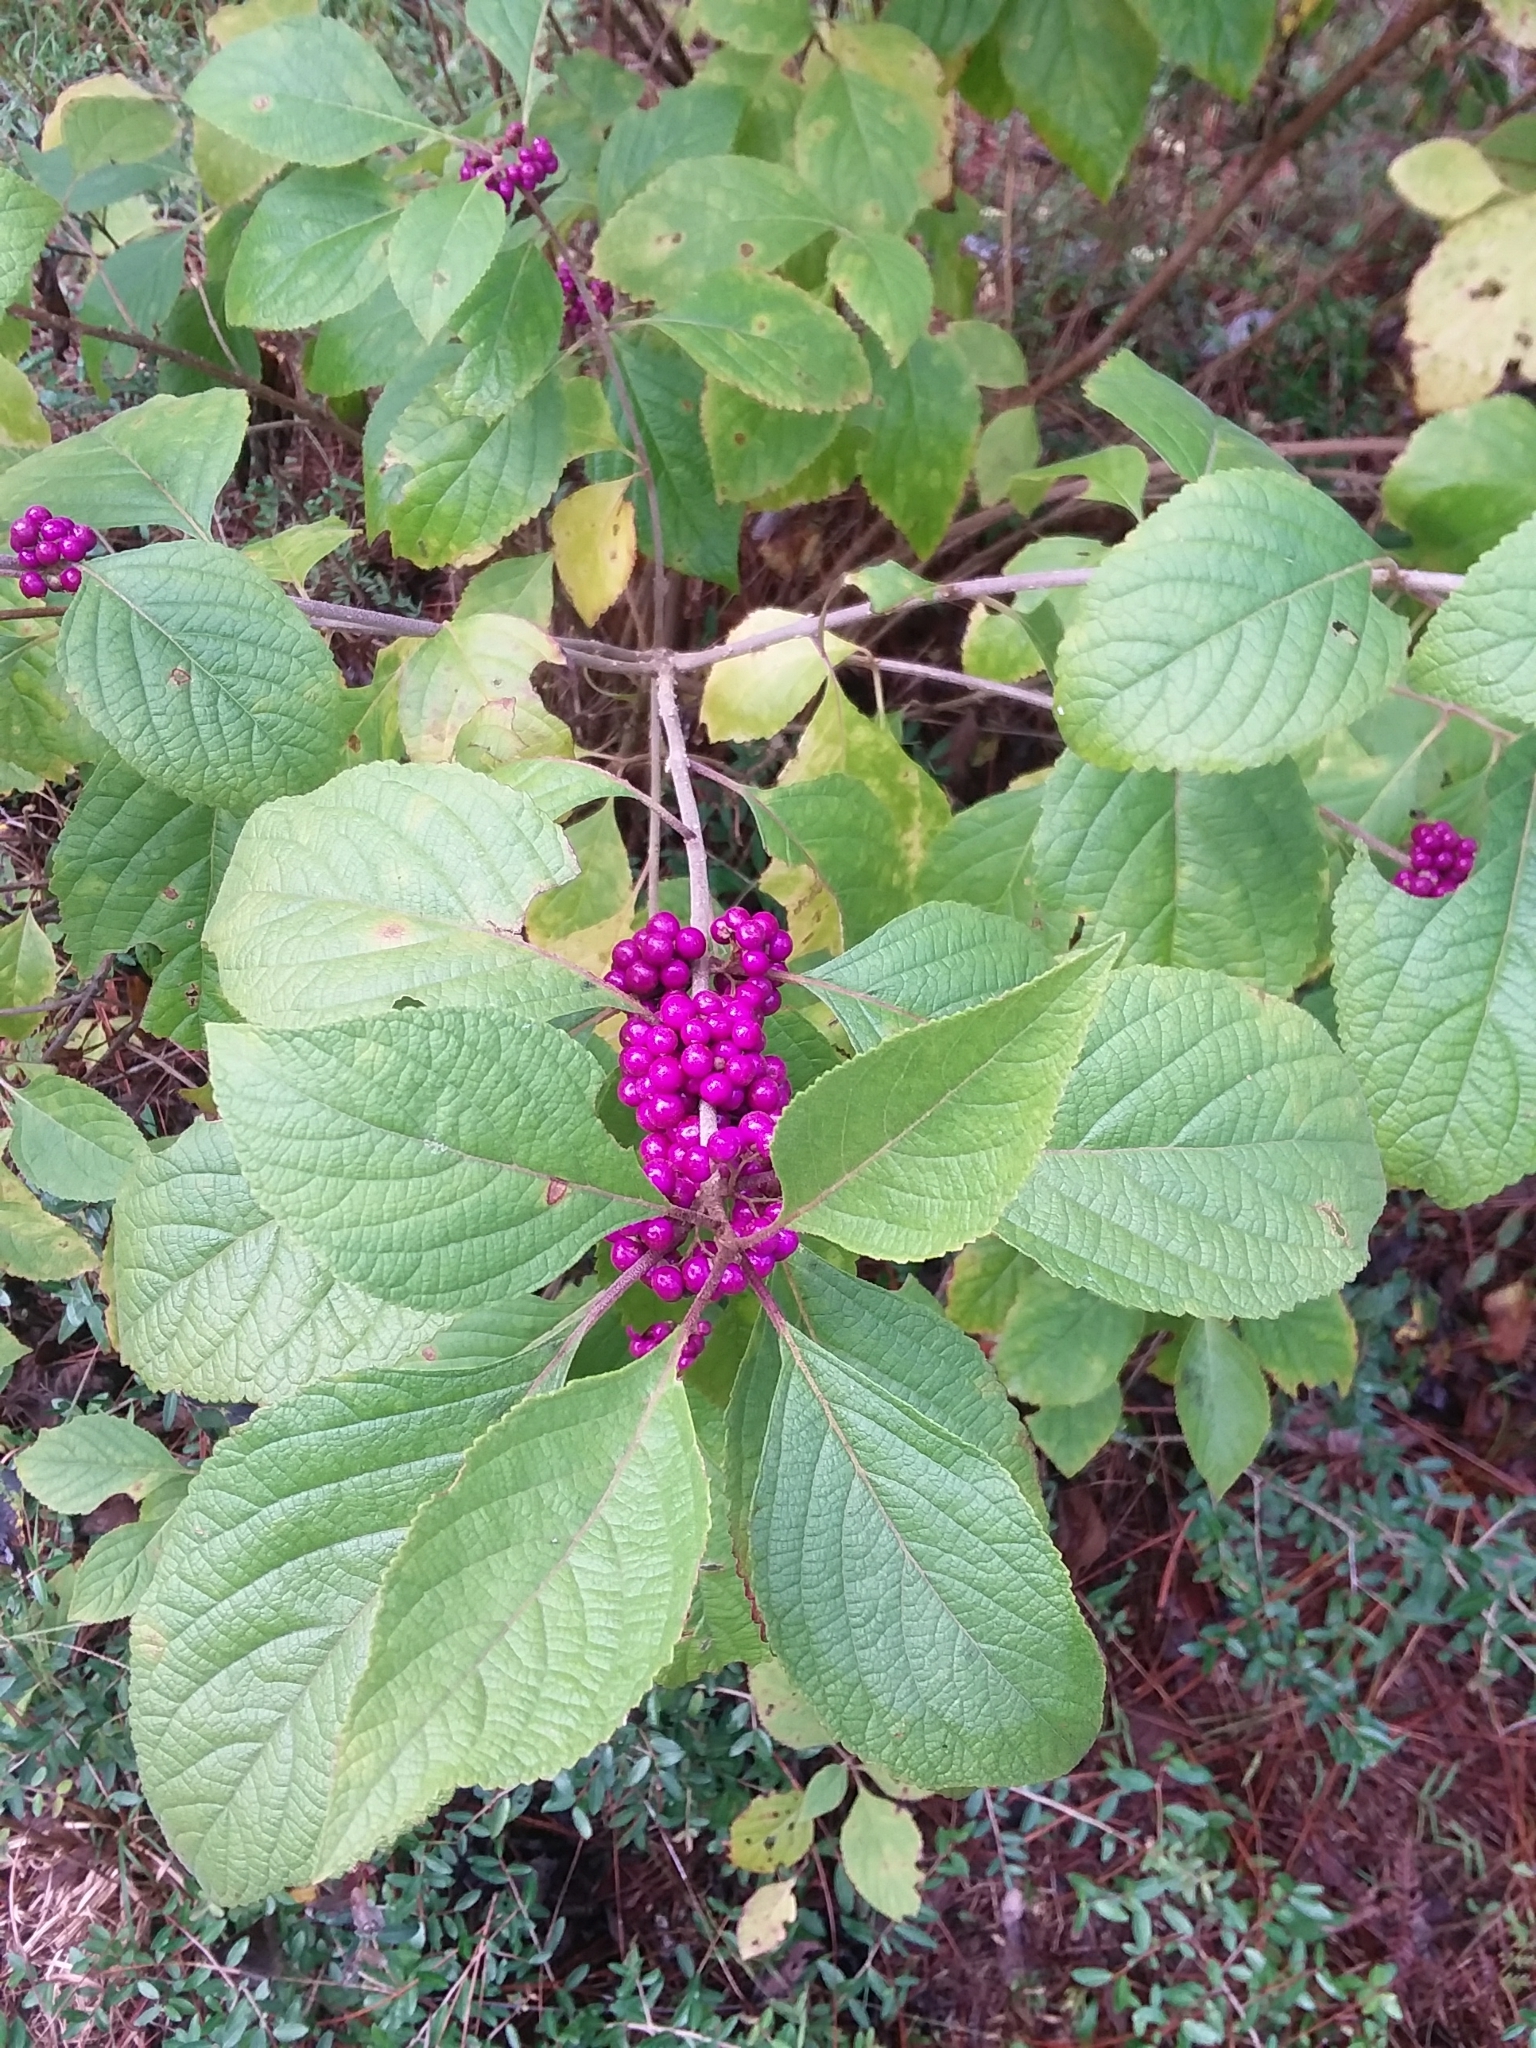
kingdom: Plantae
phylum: Tracheophyta
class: Magnoliopsida
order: Lamiales
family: Lamiaceae
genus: Callicarpa
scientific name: Callicarpa americana
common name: American beautyberry
